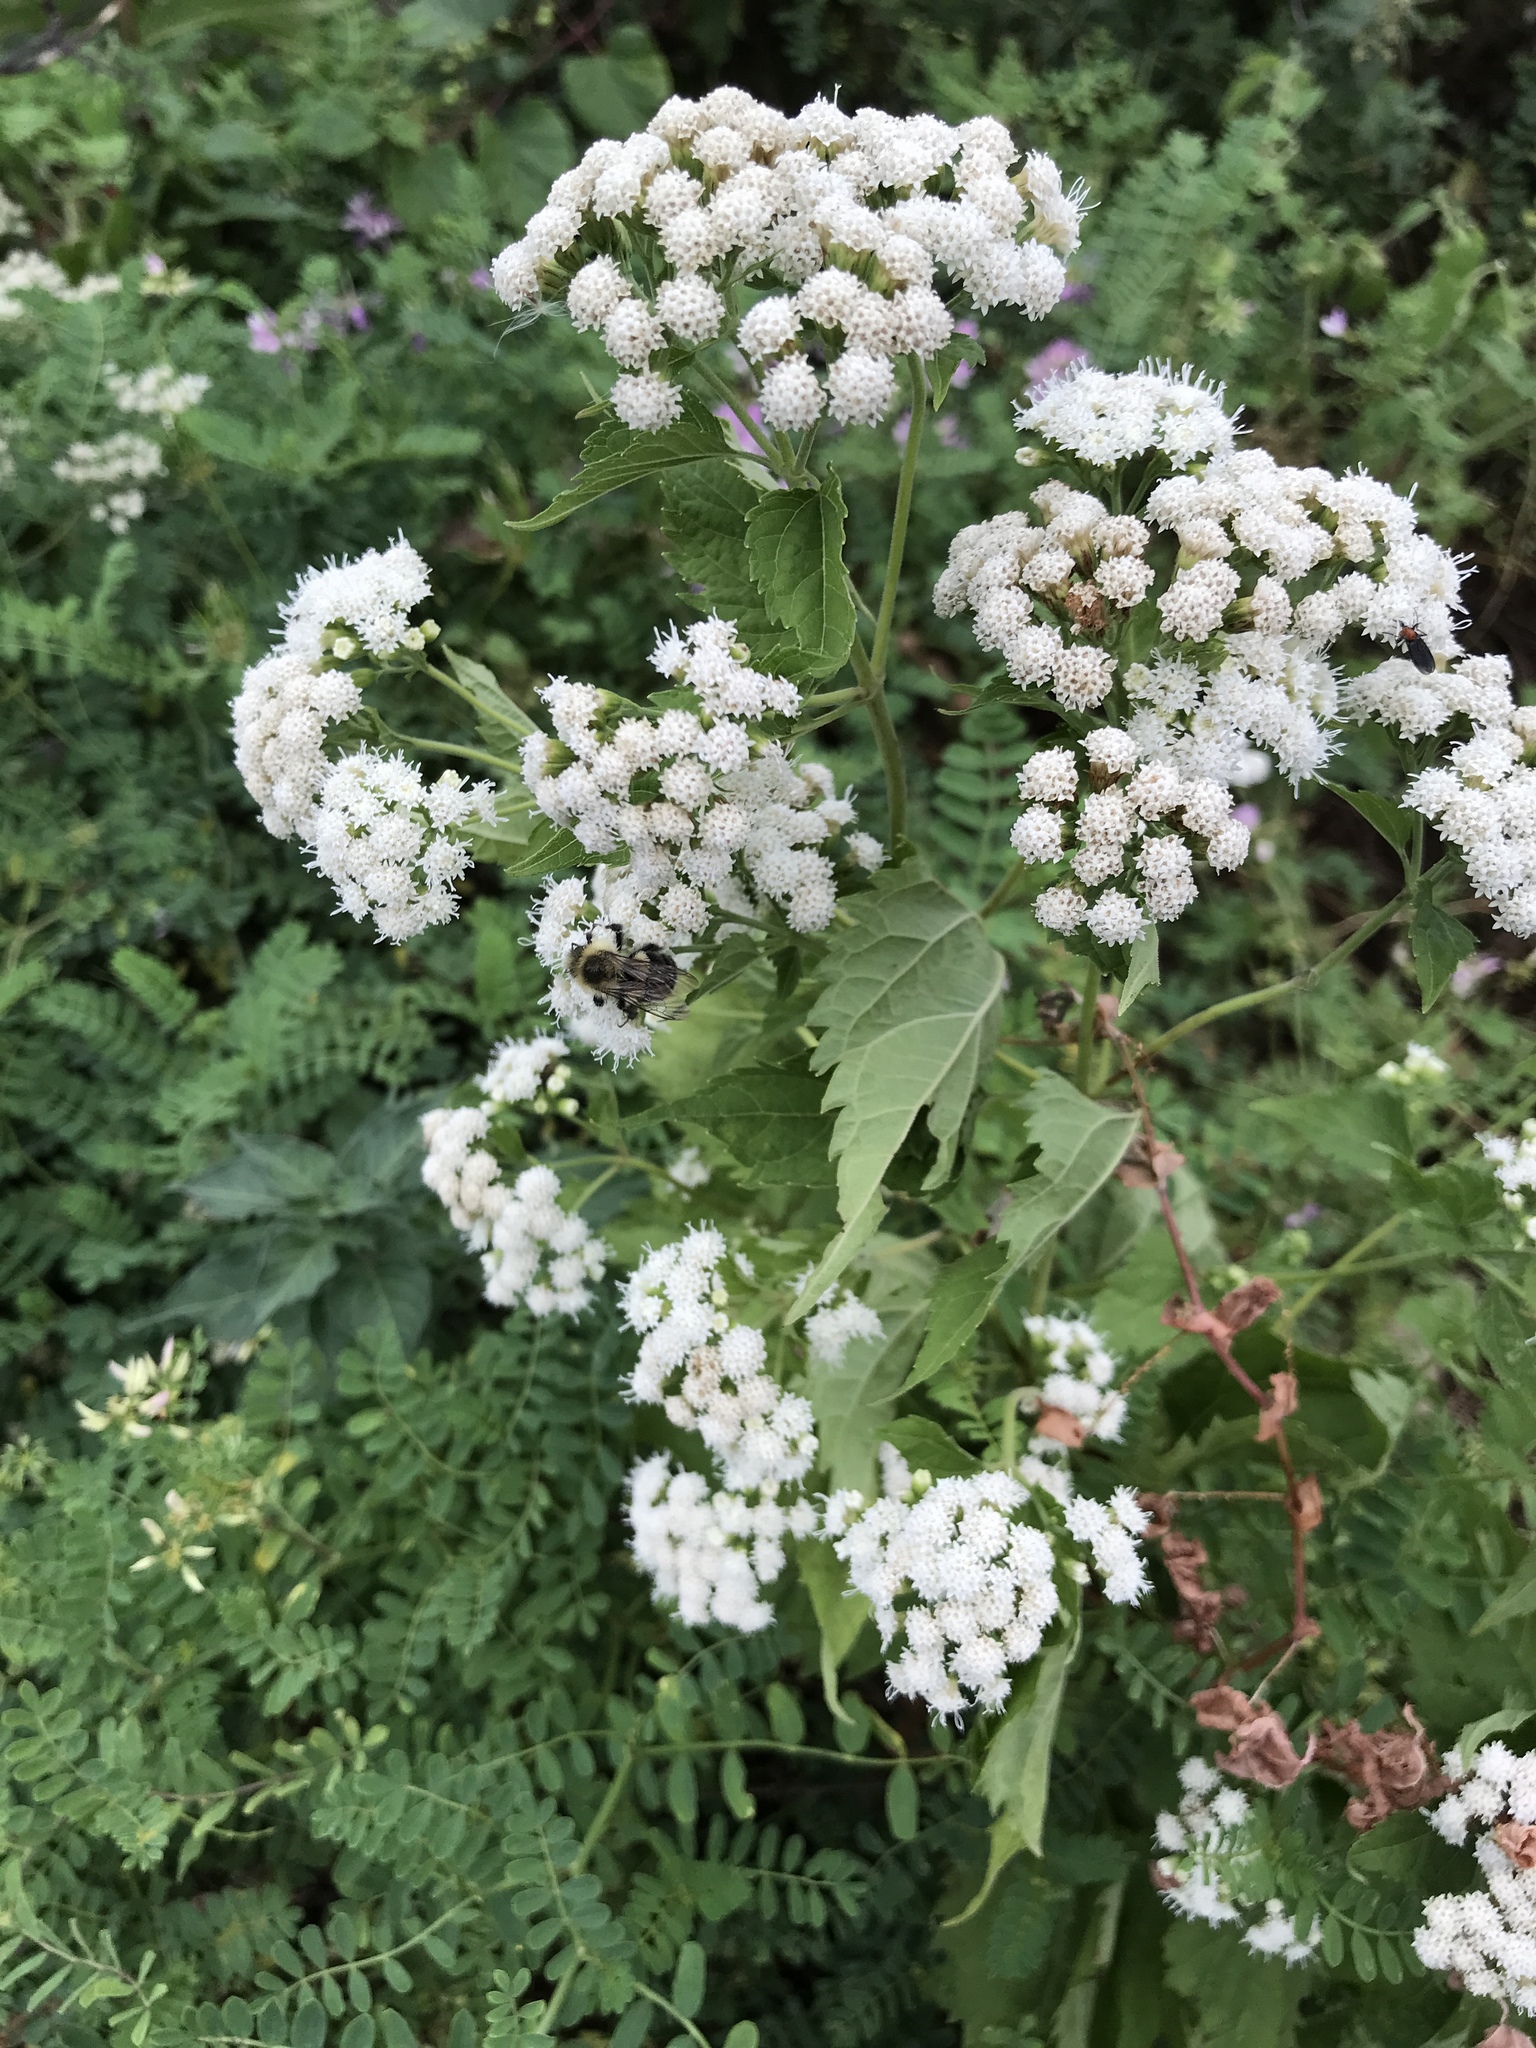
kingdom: Plantae
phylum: Tracheophyta
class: Magnoliopsida
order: Asterales
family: Asteraceae
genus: Ageratina
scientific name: Ageratina altissima
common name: White snakeroot
